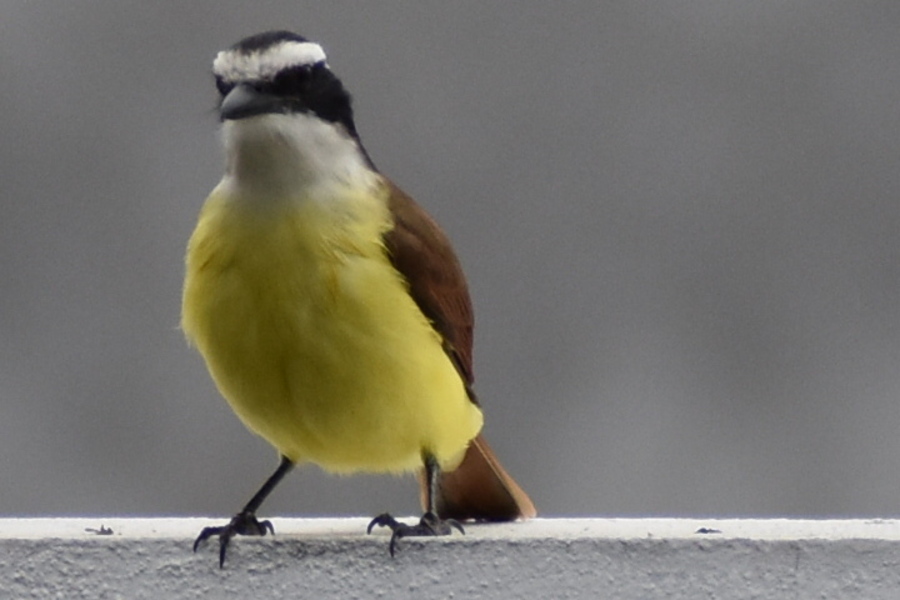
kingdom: Animalia
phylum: Chordata
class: Aves
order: Passeriformes
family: Tyrannidae
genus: Pitangus
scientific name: Pitangus sulphuratus
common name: Great kiskadee
